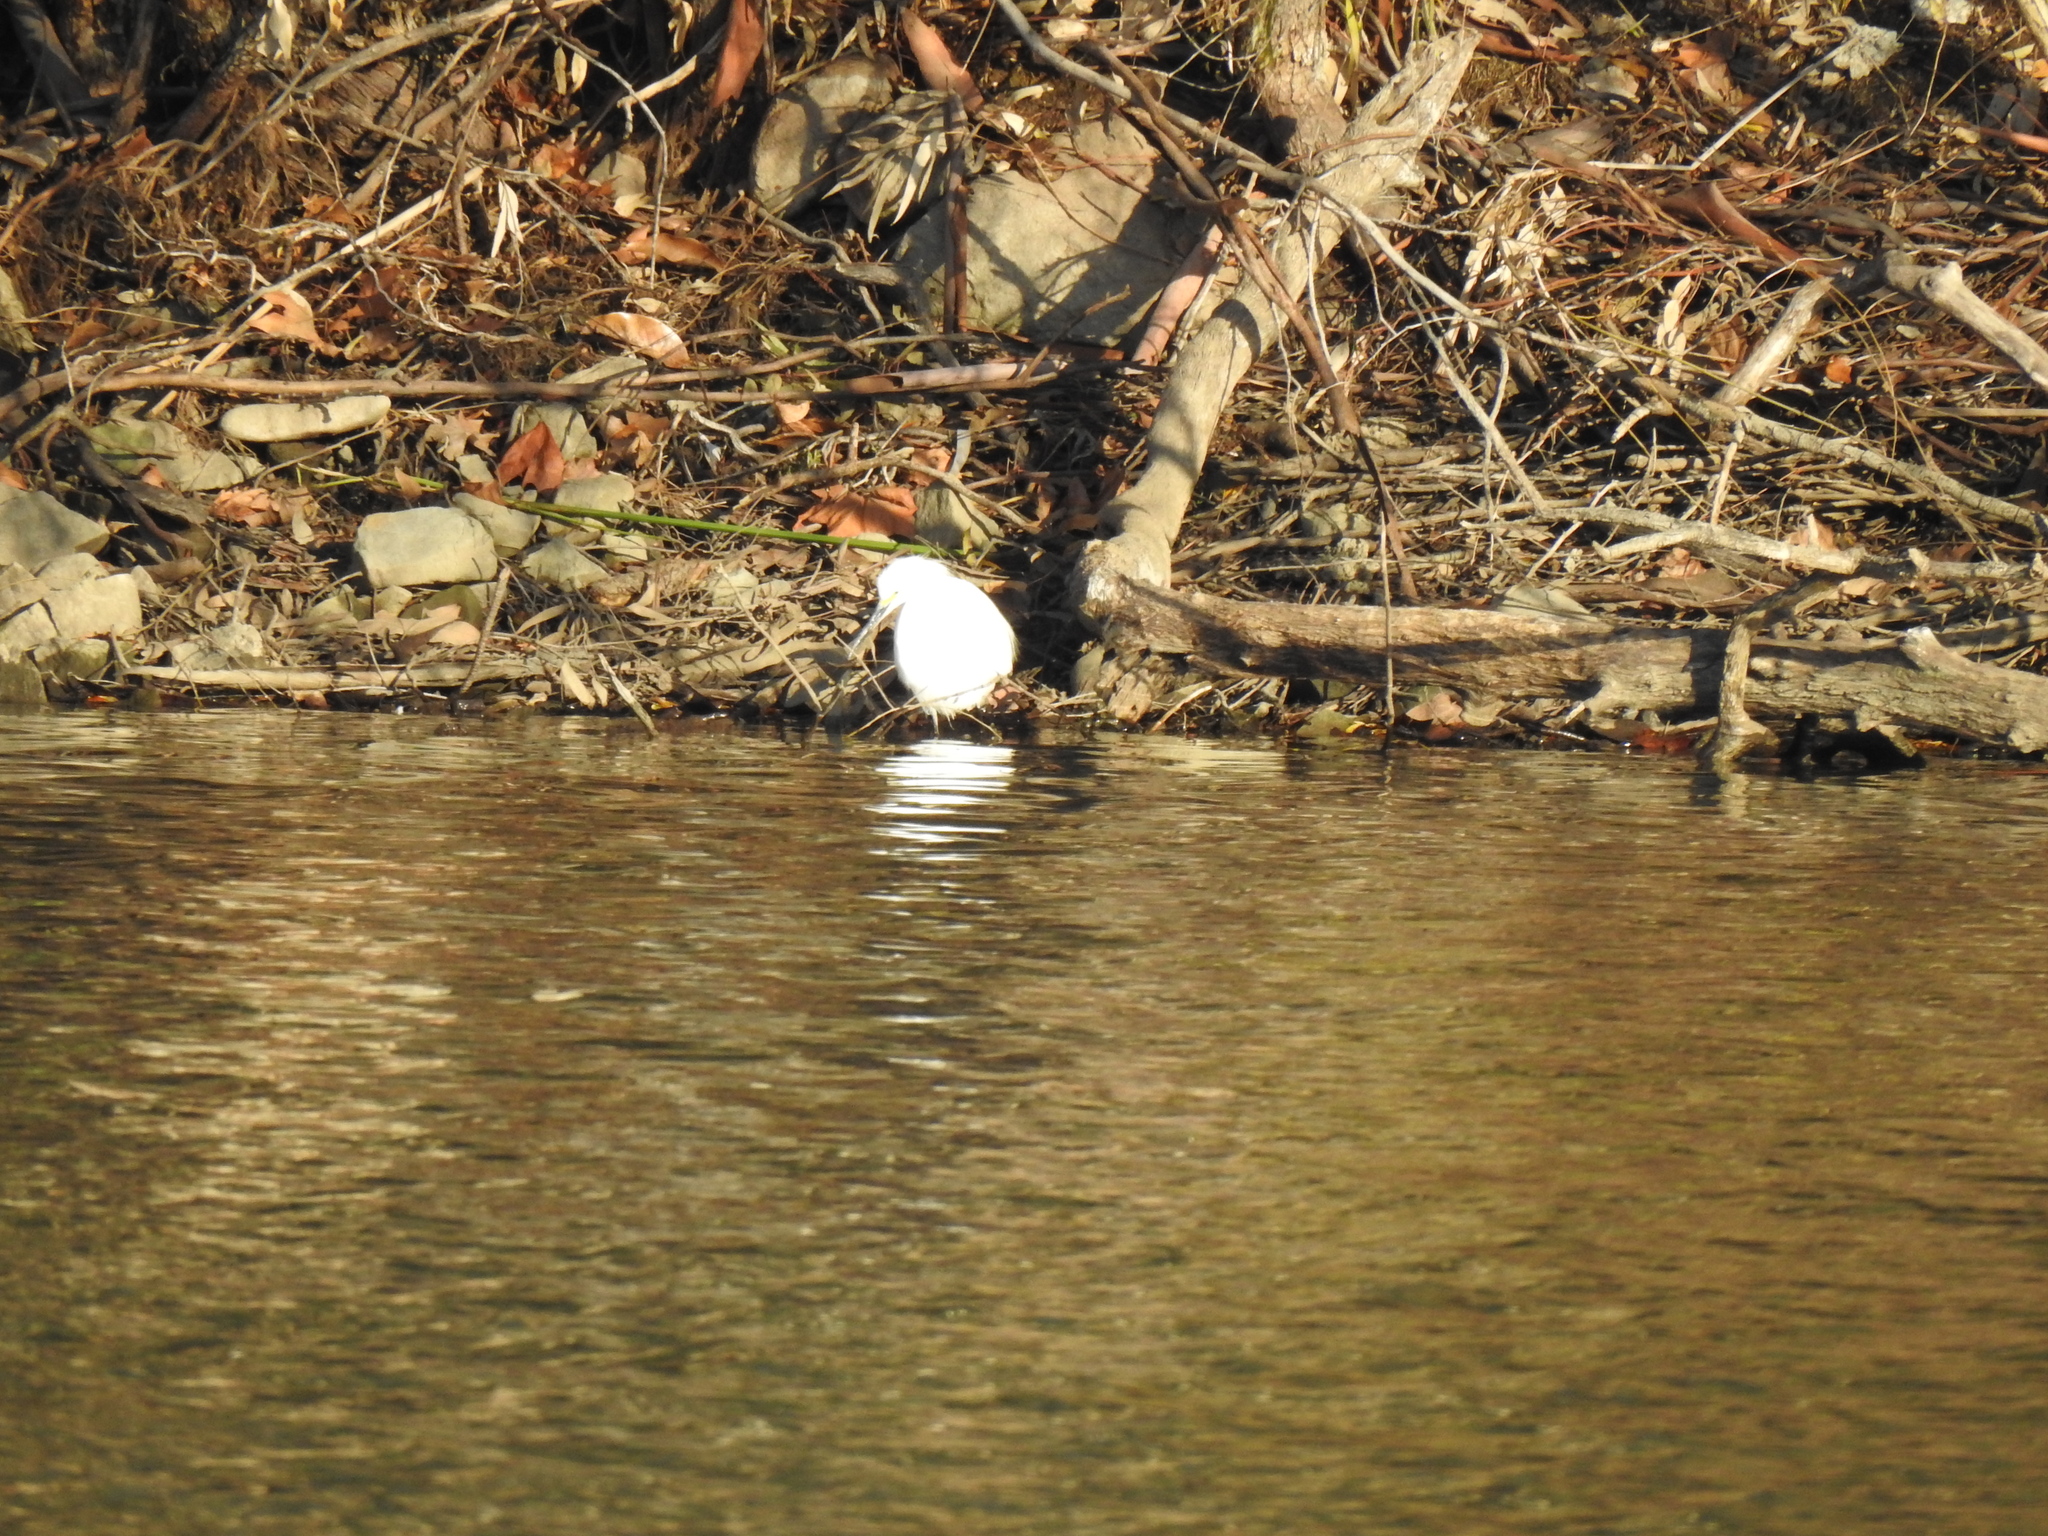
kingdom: Animalia
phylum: Chordata
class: Aves
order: Pelecaniformes
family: Ardeidae
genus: Egretta
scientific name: Egretta thula
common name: Snowy egret
